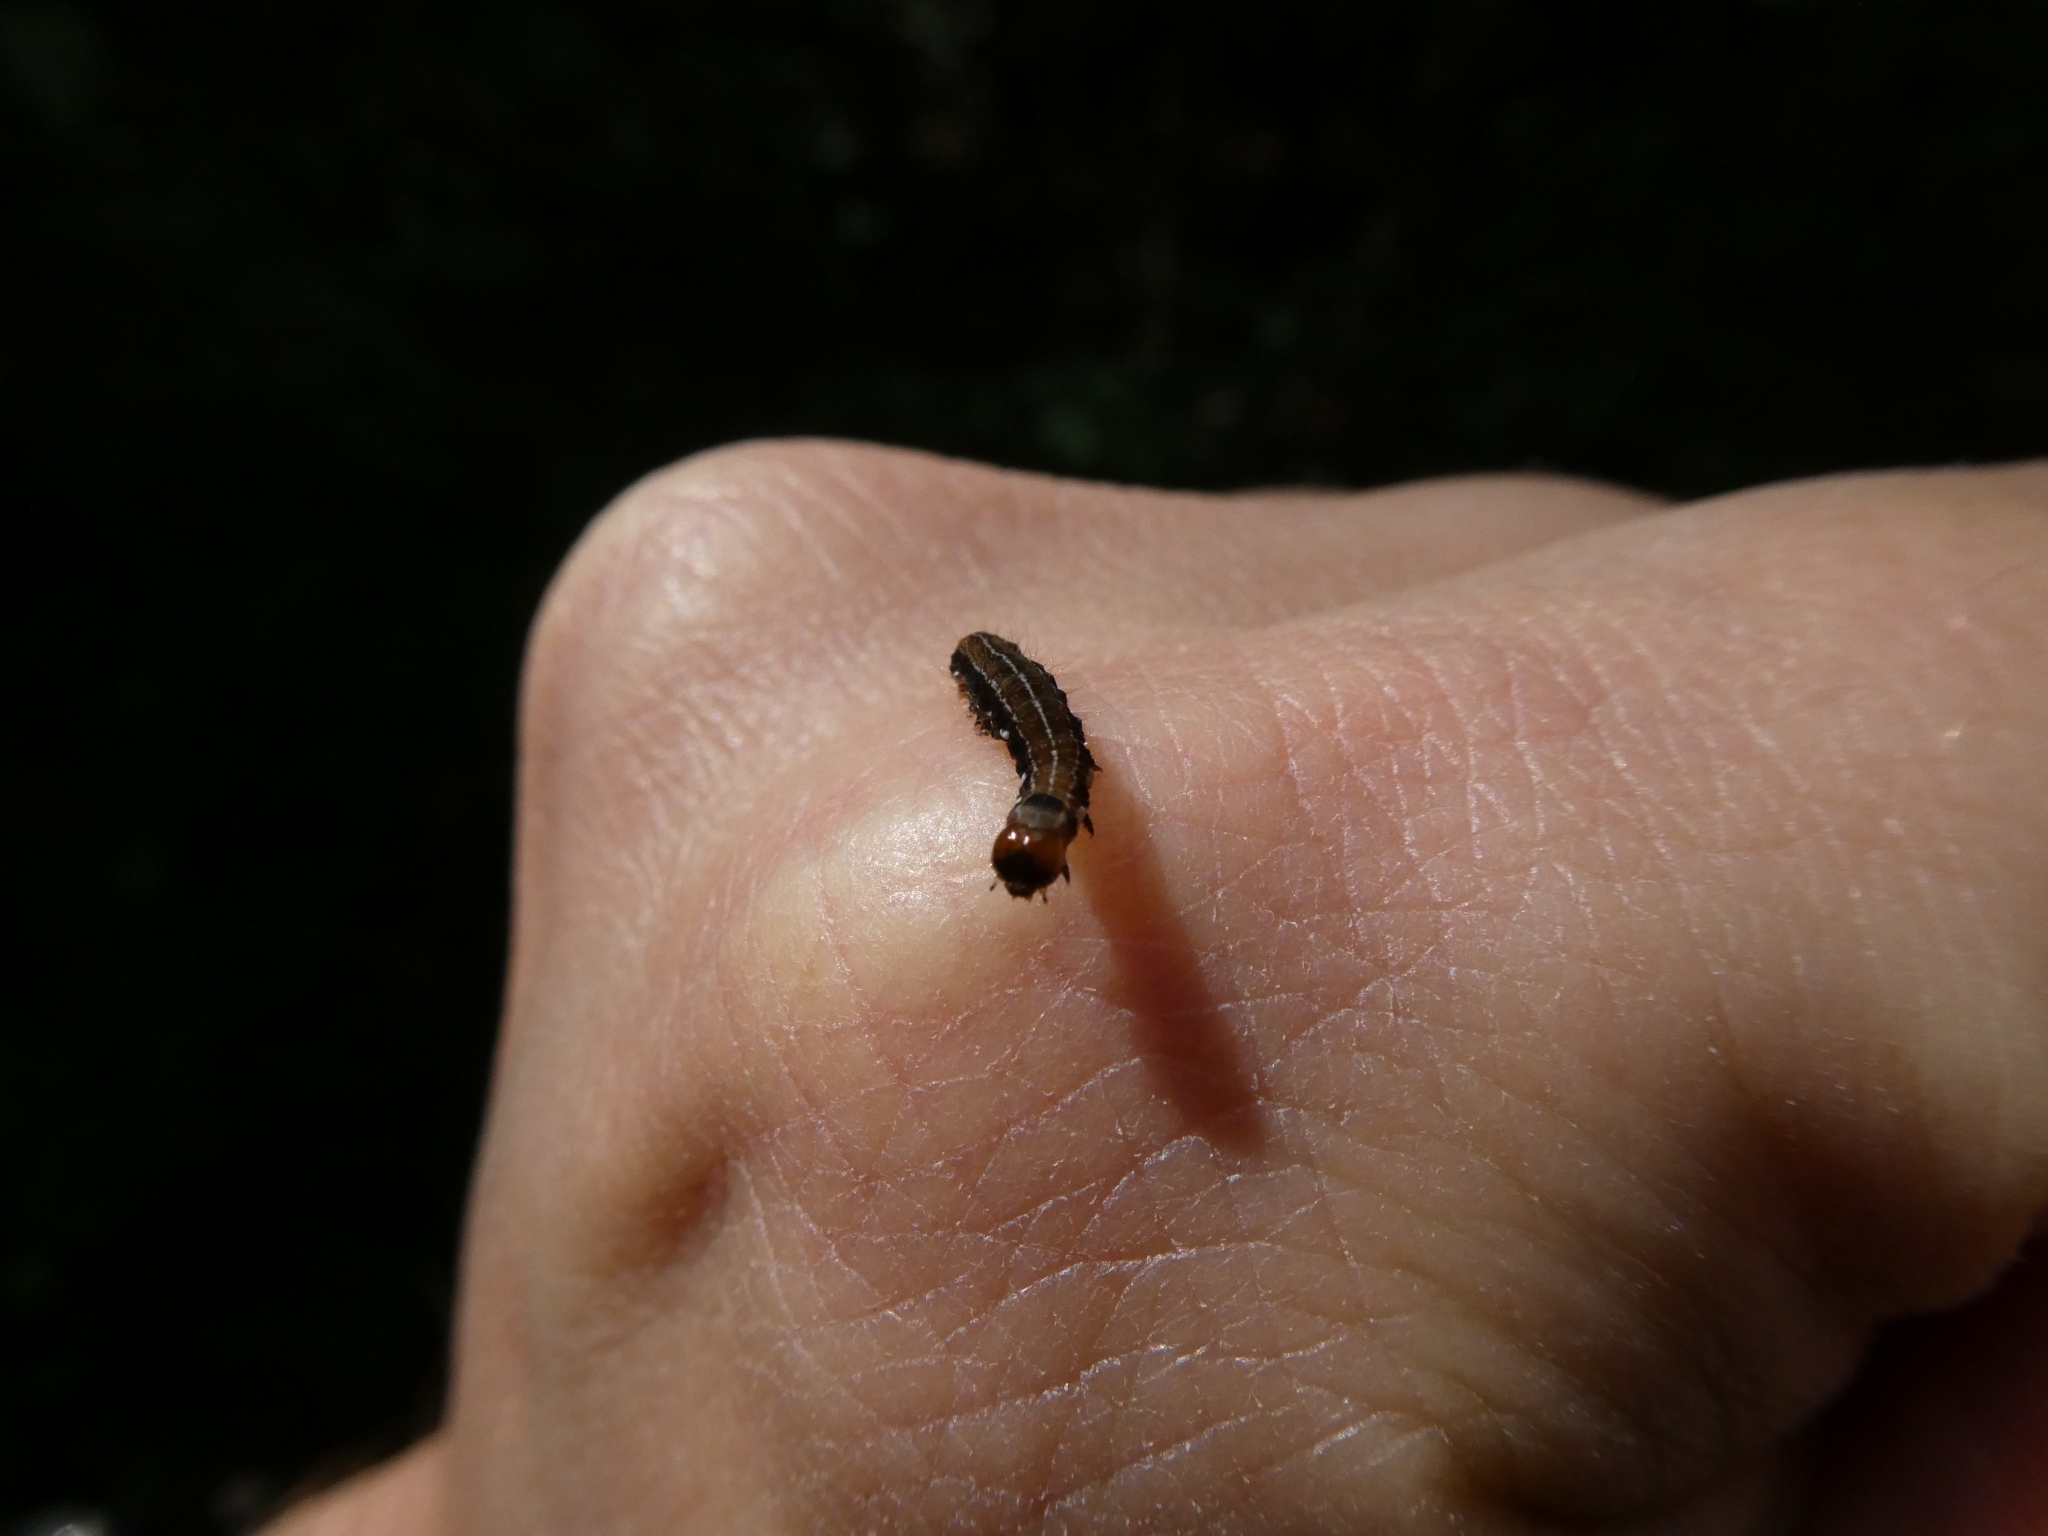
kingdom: Animalia
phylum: Arthropoda
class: Insecta
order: Lepidoptera
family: Noctuidae
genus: Eupsilia
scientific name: Eupsilia transversa
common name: Satellite
